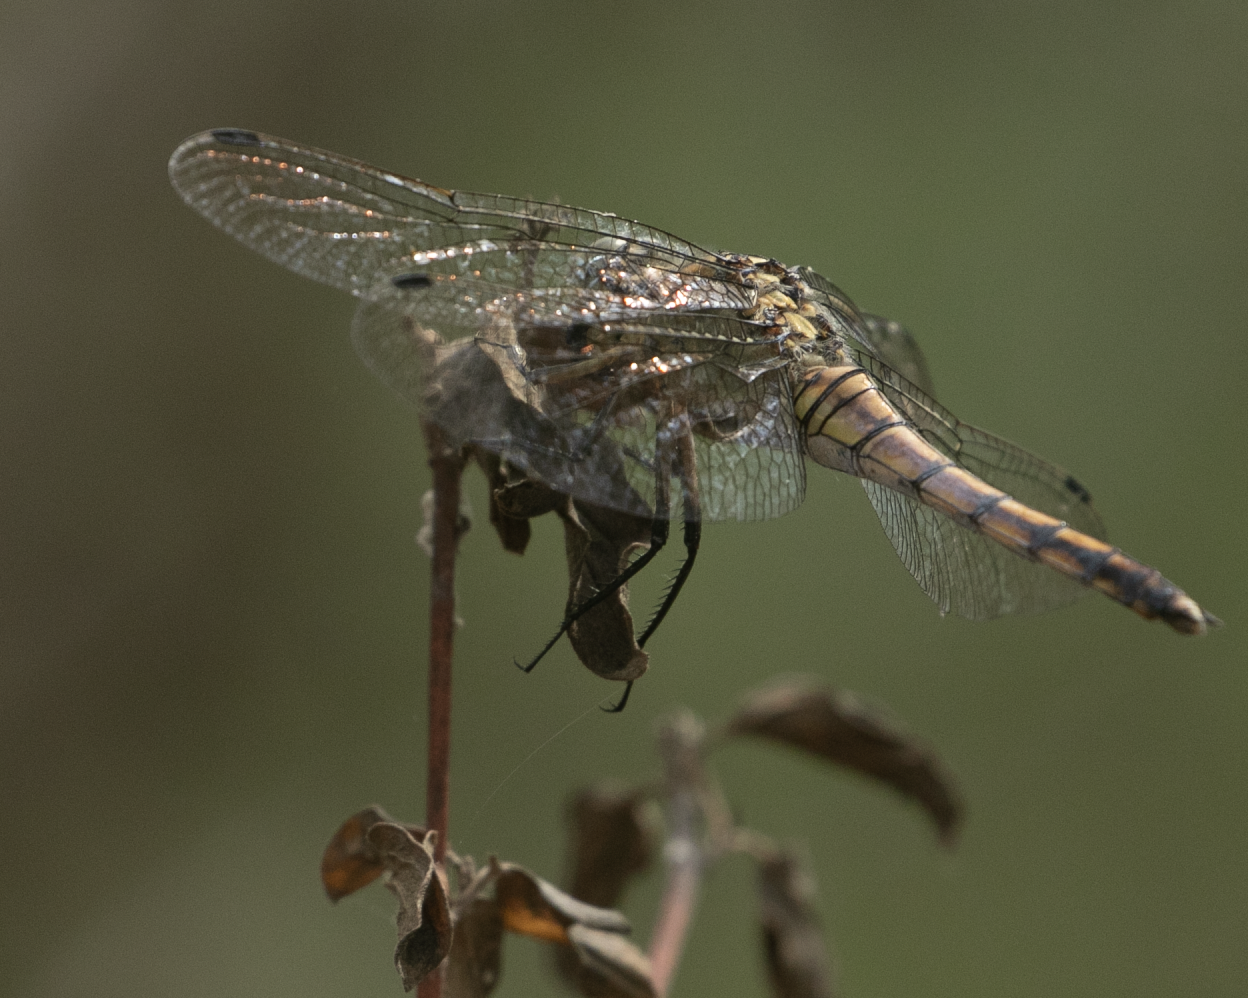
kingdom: Animalia
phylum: Arthropoda
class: Insecta
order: Odonata
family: Libellulidae
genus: Orthetrum
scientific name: Orthetrum cancellatum
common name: Black-tailed skimmer
